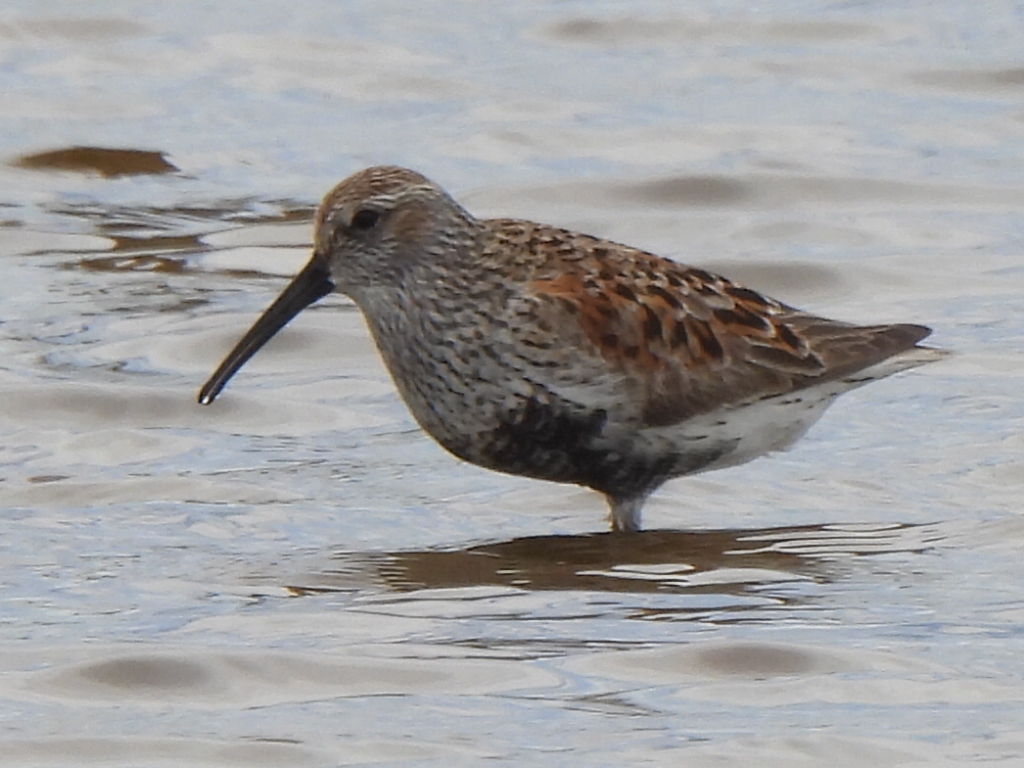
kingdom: Animalia
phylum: Chordata
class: Aves
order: Charadriiformes
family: Scolopacidae
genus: Calidris
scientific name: Calidris alpina
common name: Dunlin
